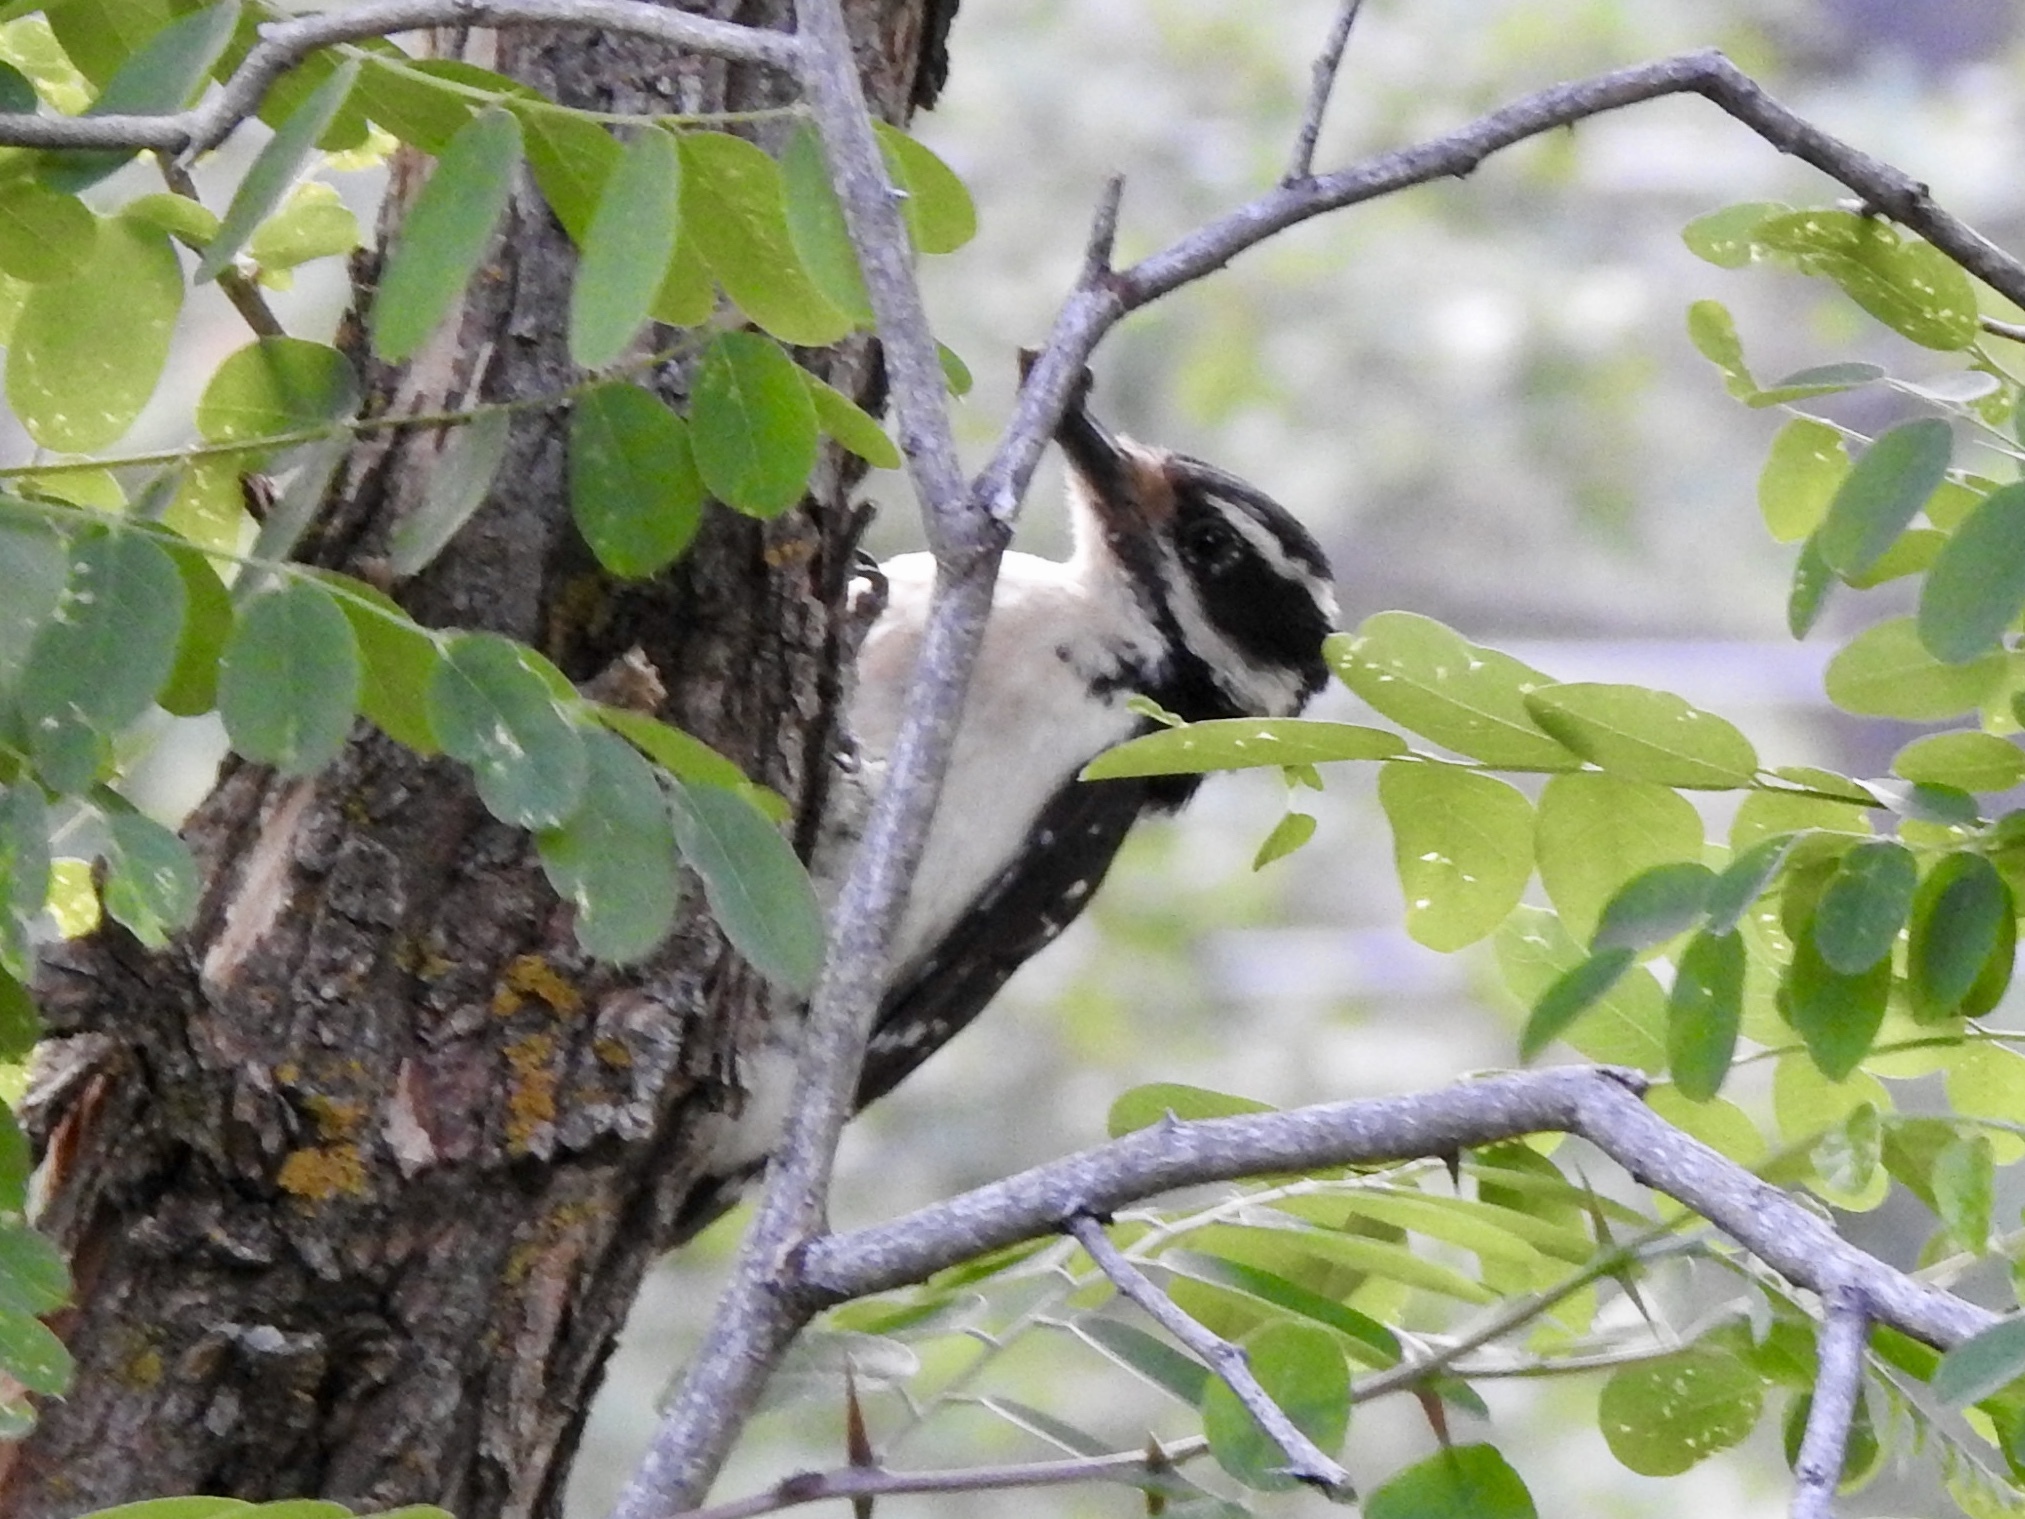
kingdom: Animalia
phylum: Chordata
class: Aves
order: Piciformes
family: Picidae
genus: Leuconotopicus
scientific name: Leuconotopicus villosus
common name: Hairy woodpecker
